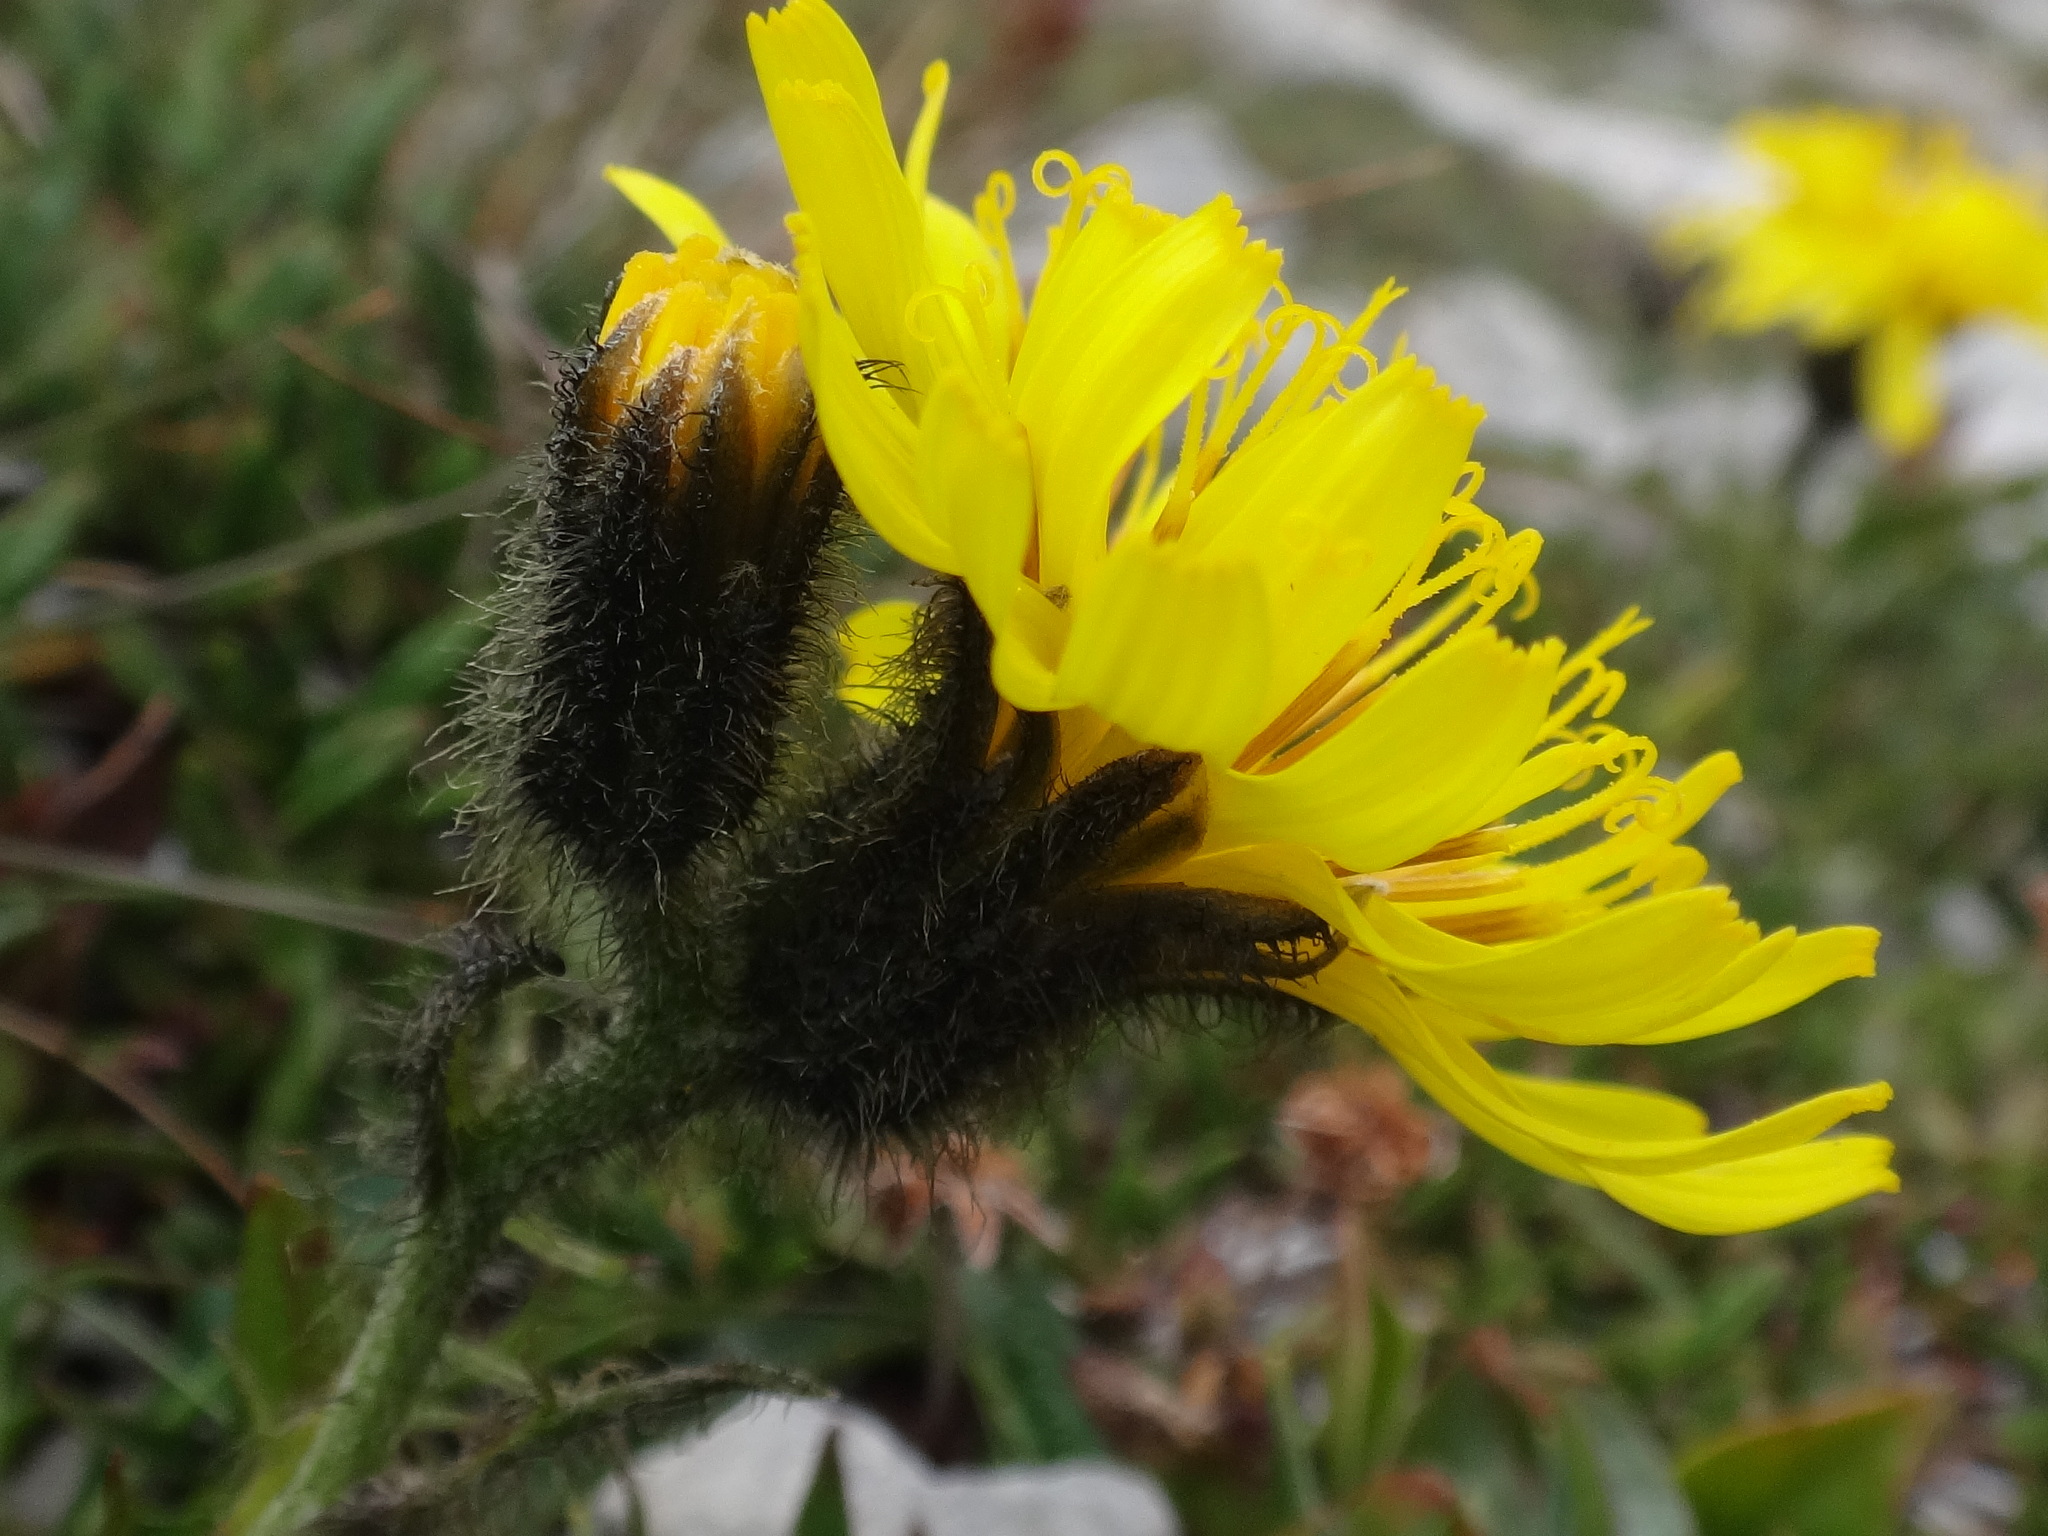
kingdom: Plantae
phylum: Tracheophyta
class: Magnoliopsida
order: Asterales
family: Asteraceae
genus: Crepis
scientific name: Crepis terglouensis
